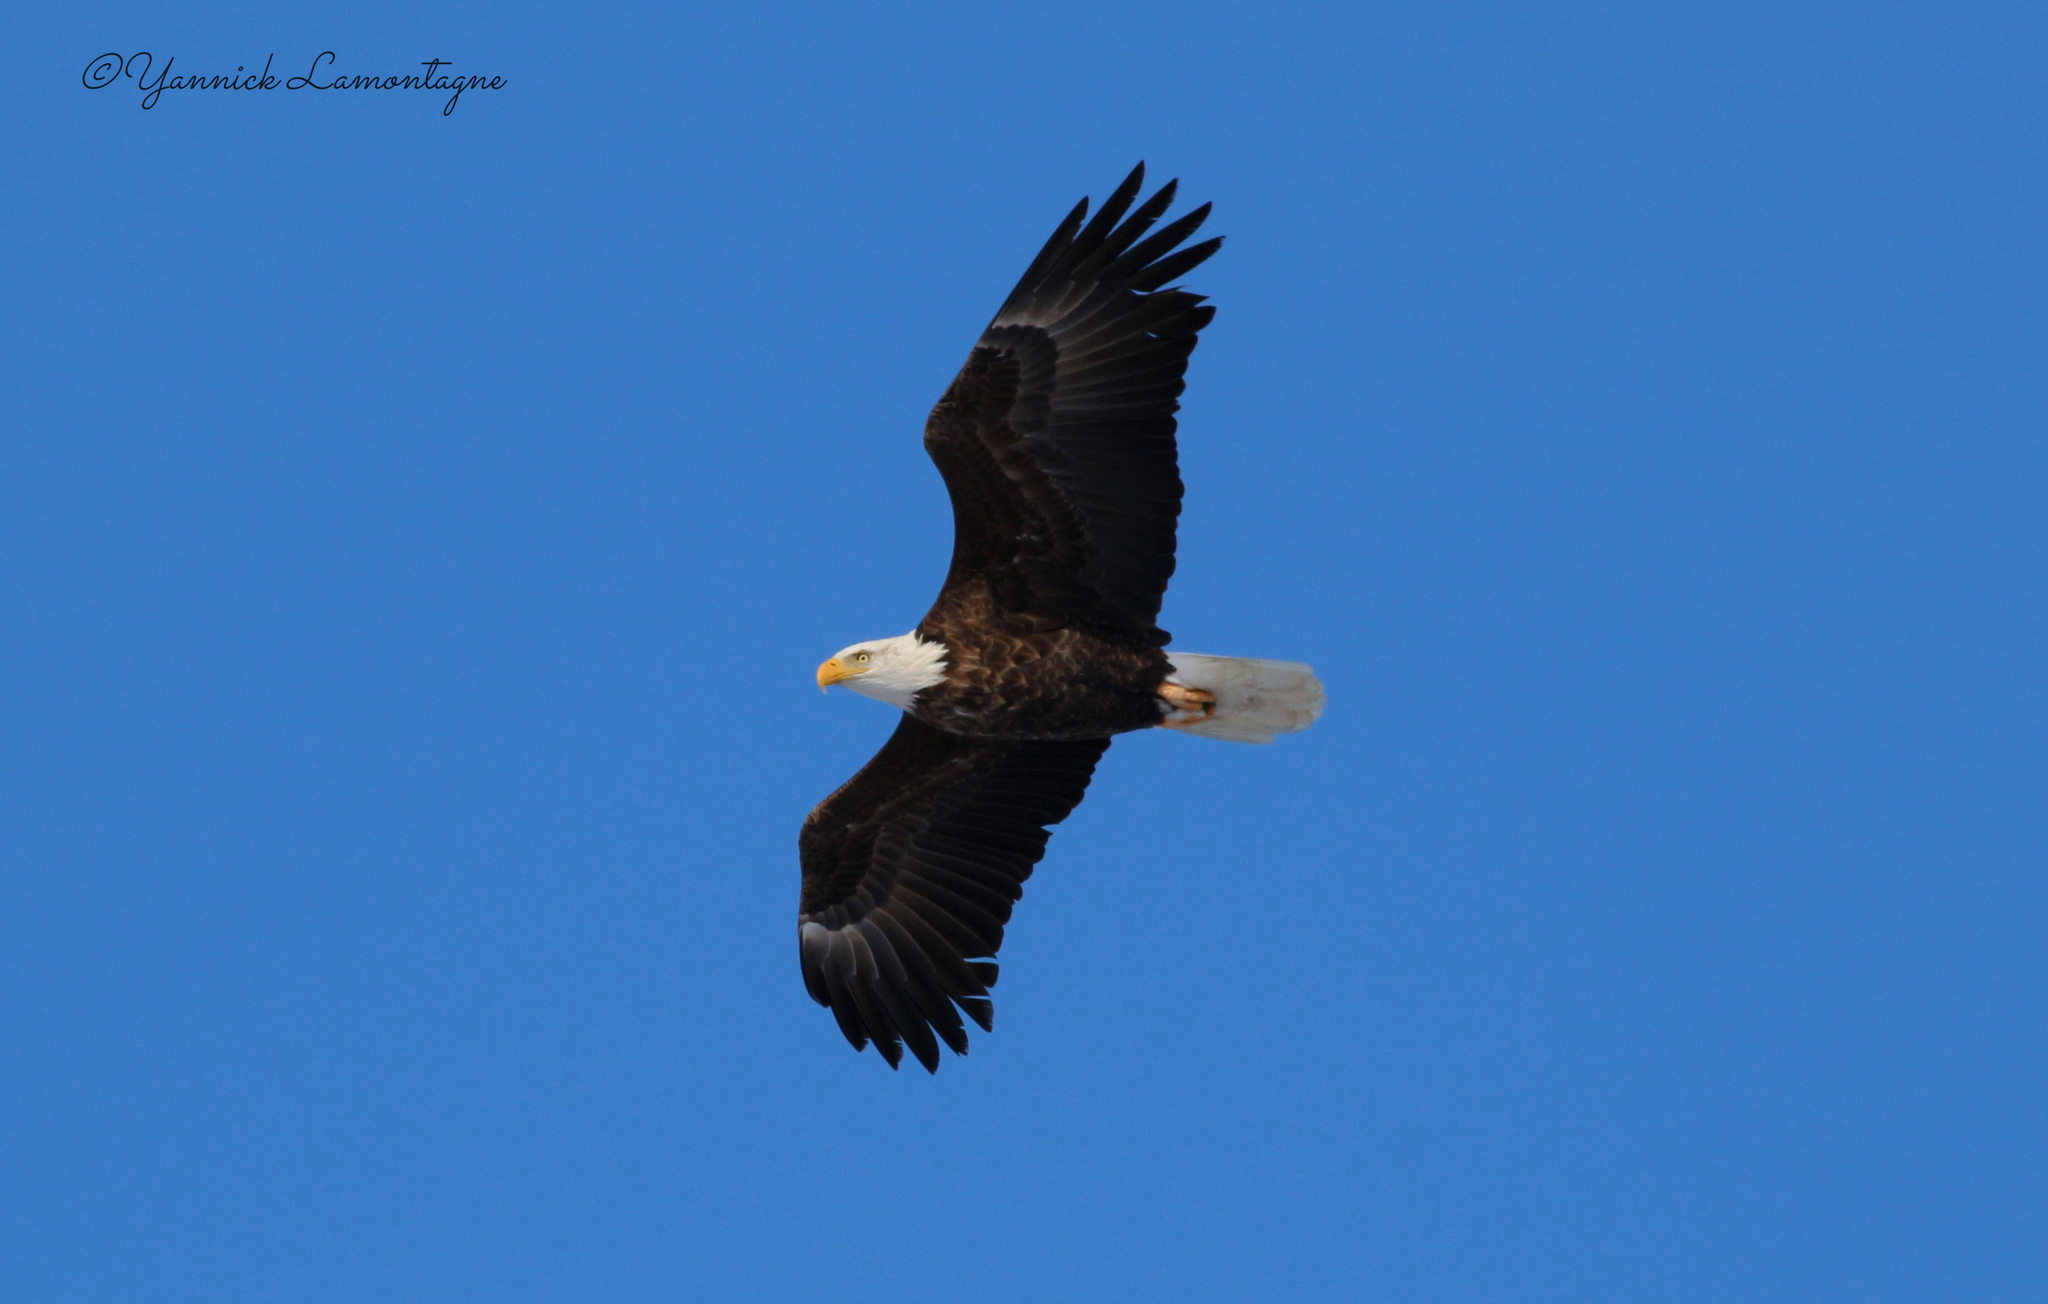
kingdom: Animalia
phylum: Chordata
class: Aves
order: Accipitriformes
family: Accipitridae
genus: Haliaeetus
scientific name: Haliaeetus leucocephalus
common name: Bald eagle
